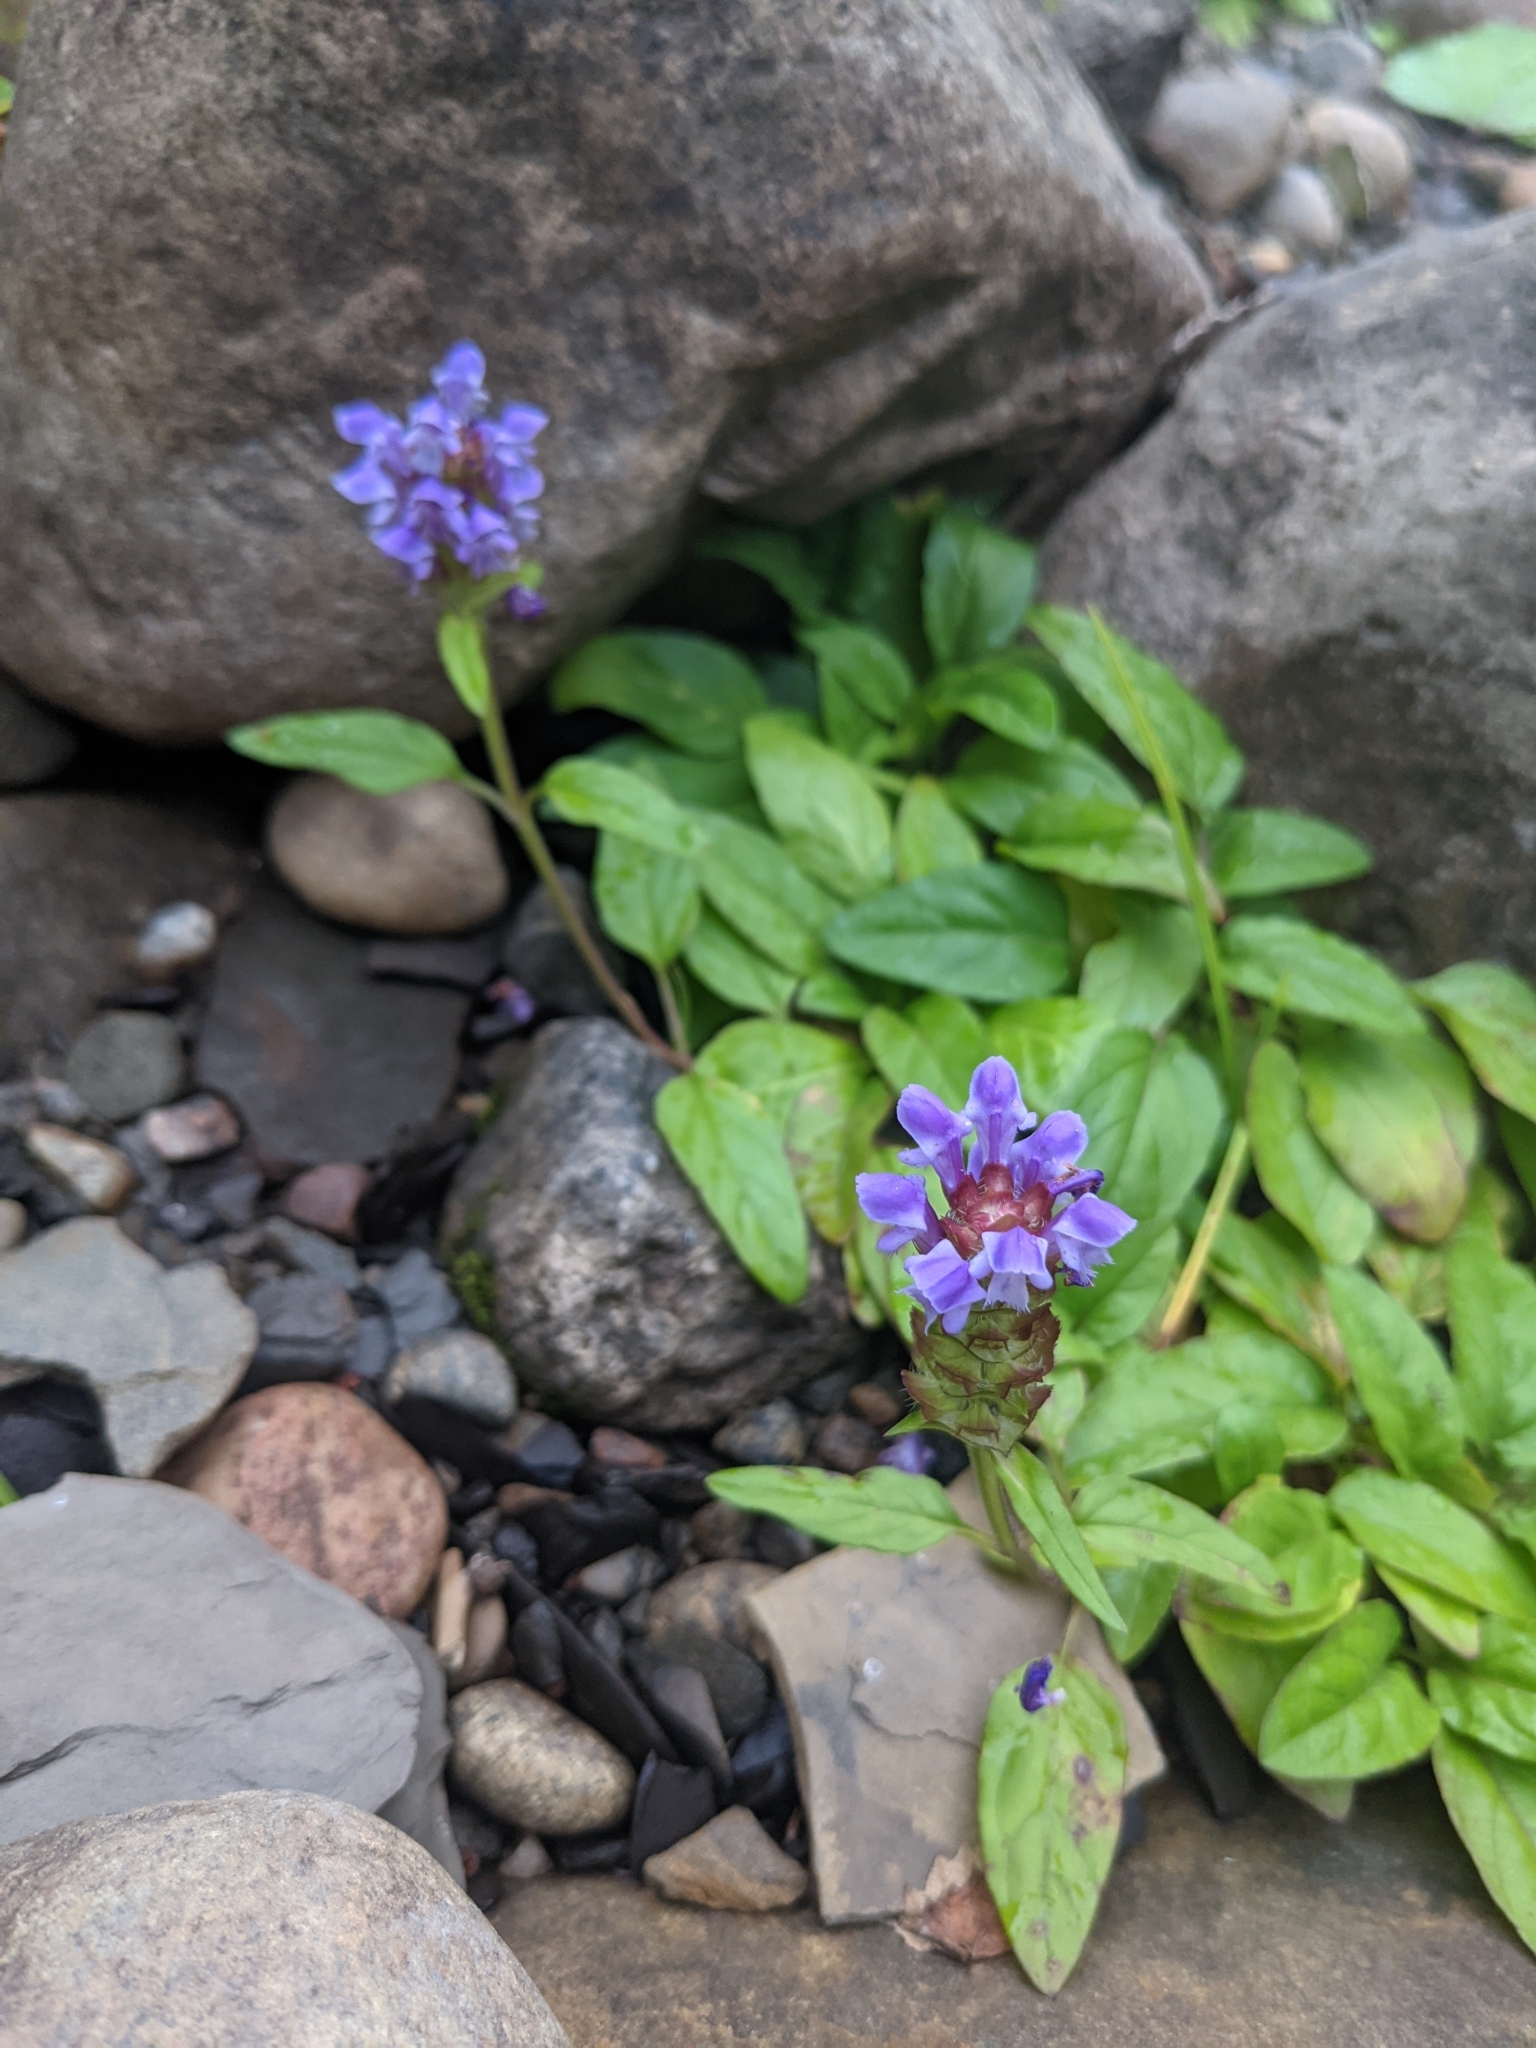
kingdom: Plantae
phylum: Tracheophyta
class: Magnoliopsida
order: Lamiales
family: Lamiaceae
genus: Prunella
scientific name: Prunella vulgaris
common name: Heal-all
